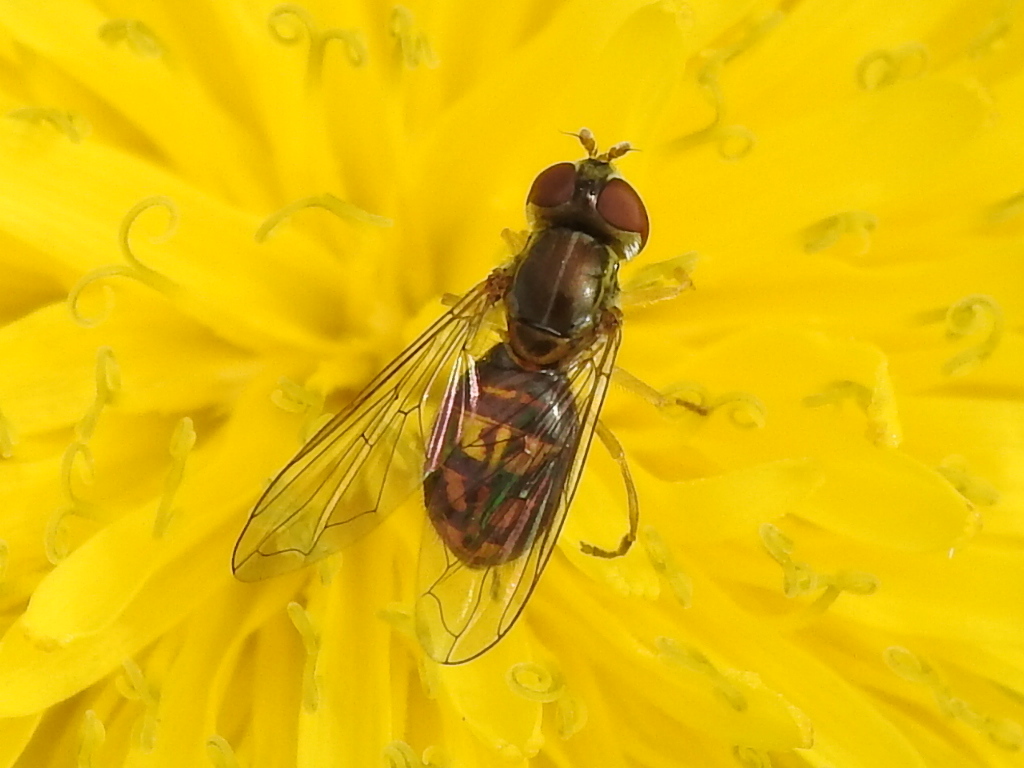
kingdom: Animalia
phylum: Arthropoda
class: Insecta
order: Diptera
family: Syrphidae
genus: Toxomerus
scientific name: Toxomerus marginatus
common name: Syrphid fly
